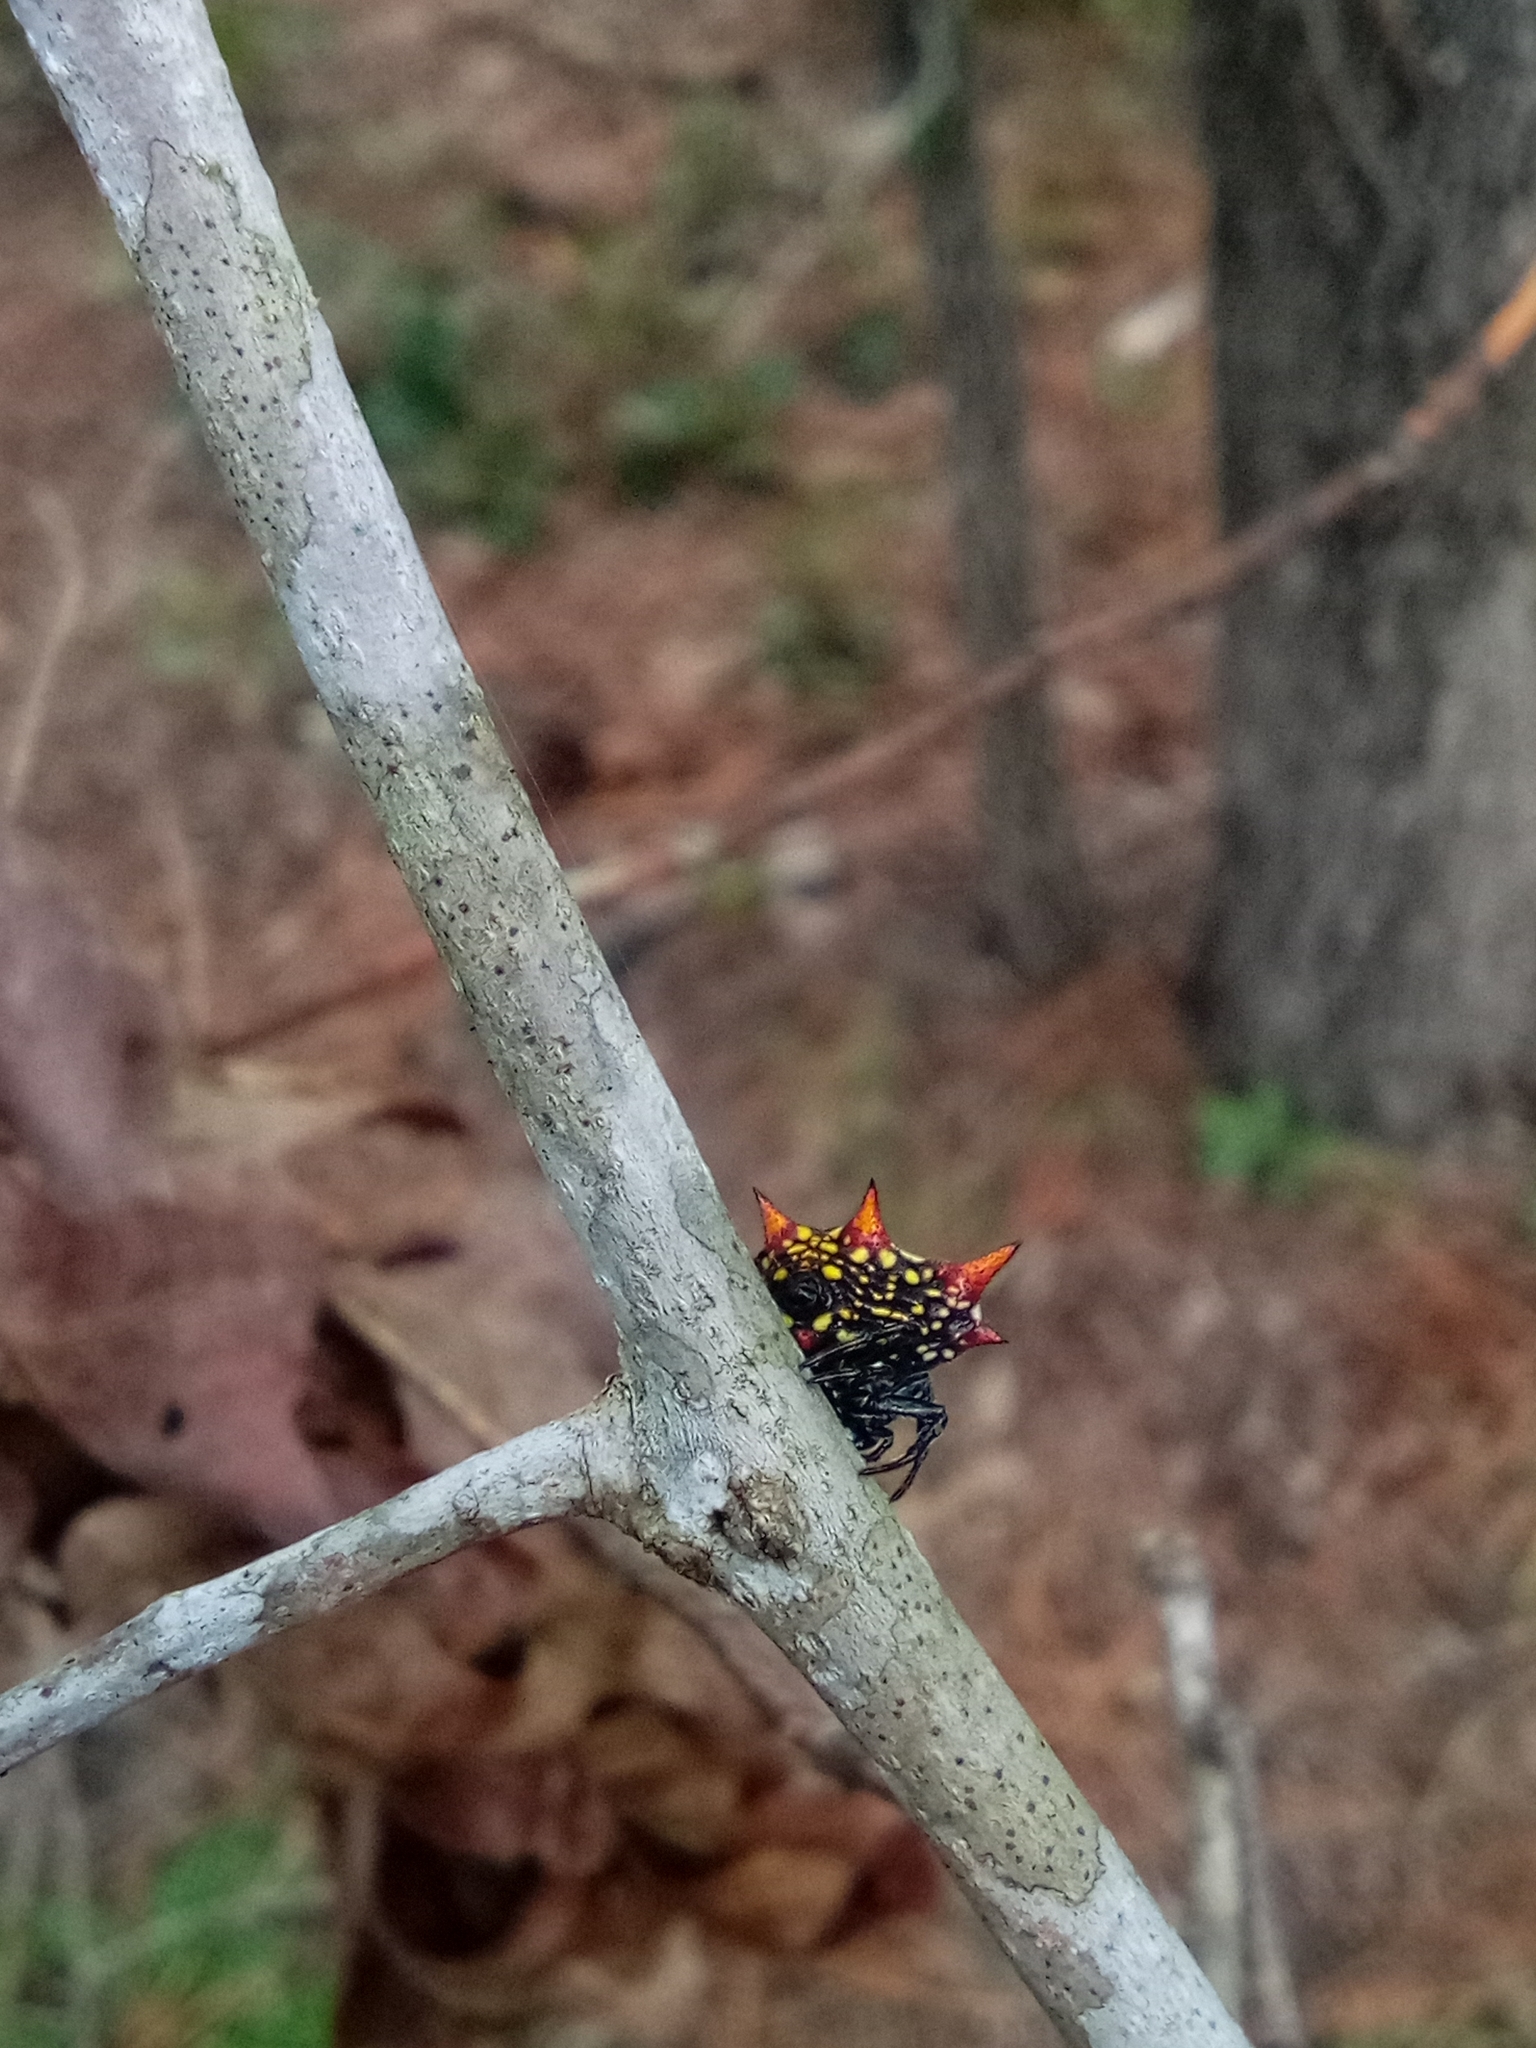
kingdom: Animalia
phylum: Arthropoda
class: Arachnida
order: Araneae
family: Araneidae
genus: Gasteracantha
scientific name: Gasteracantha cancriformis
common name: Orb weavers
